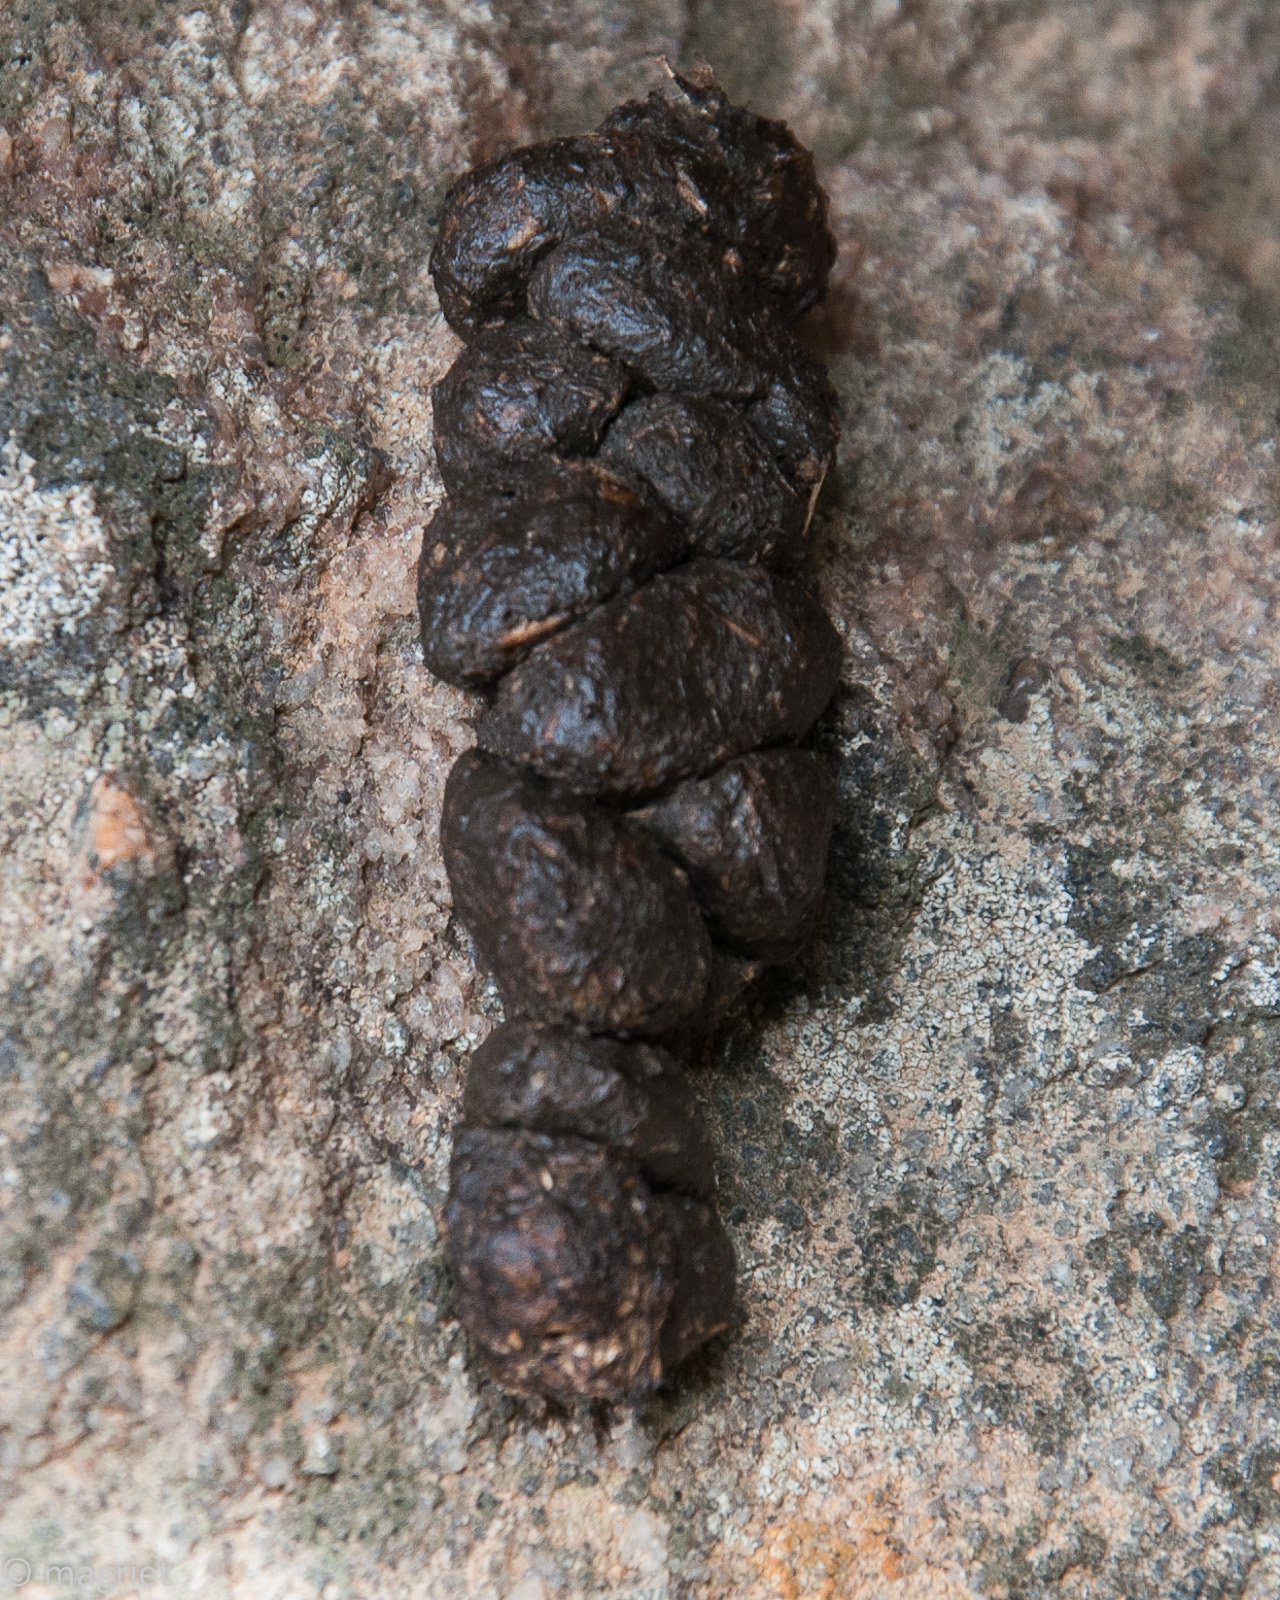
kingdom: Animalia
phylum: Chordata
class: Mammalia
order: Rodentia
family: Hystricidae
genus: Hystrix
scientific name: Hystrix africaeaustralis
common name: Cape porcupine
